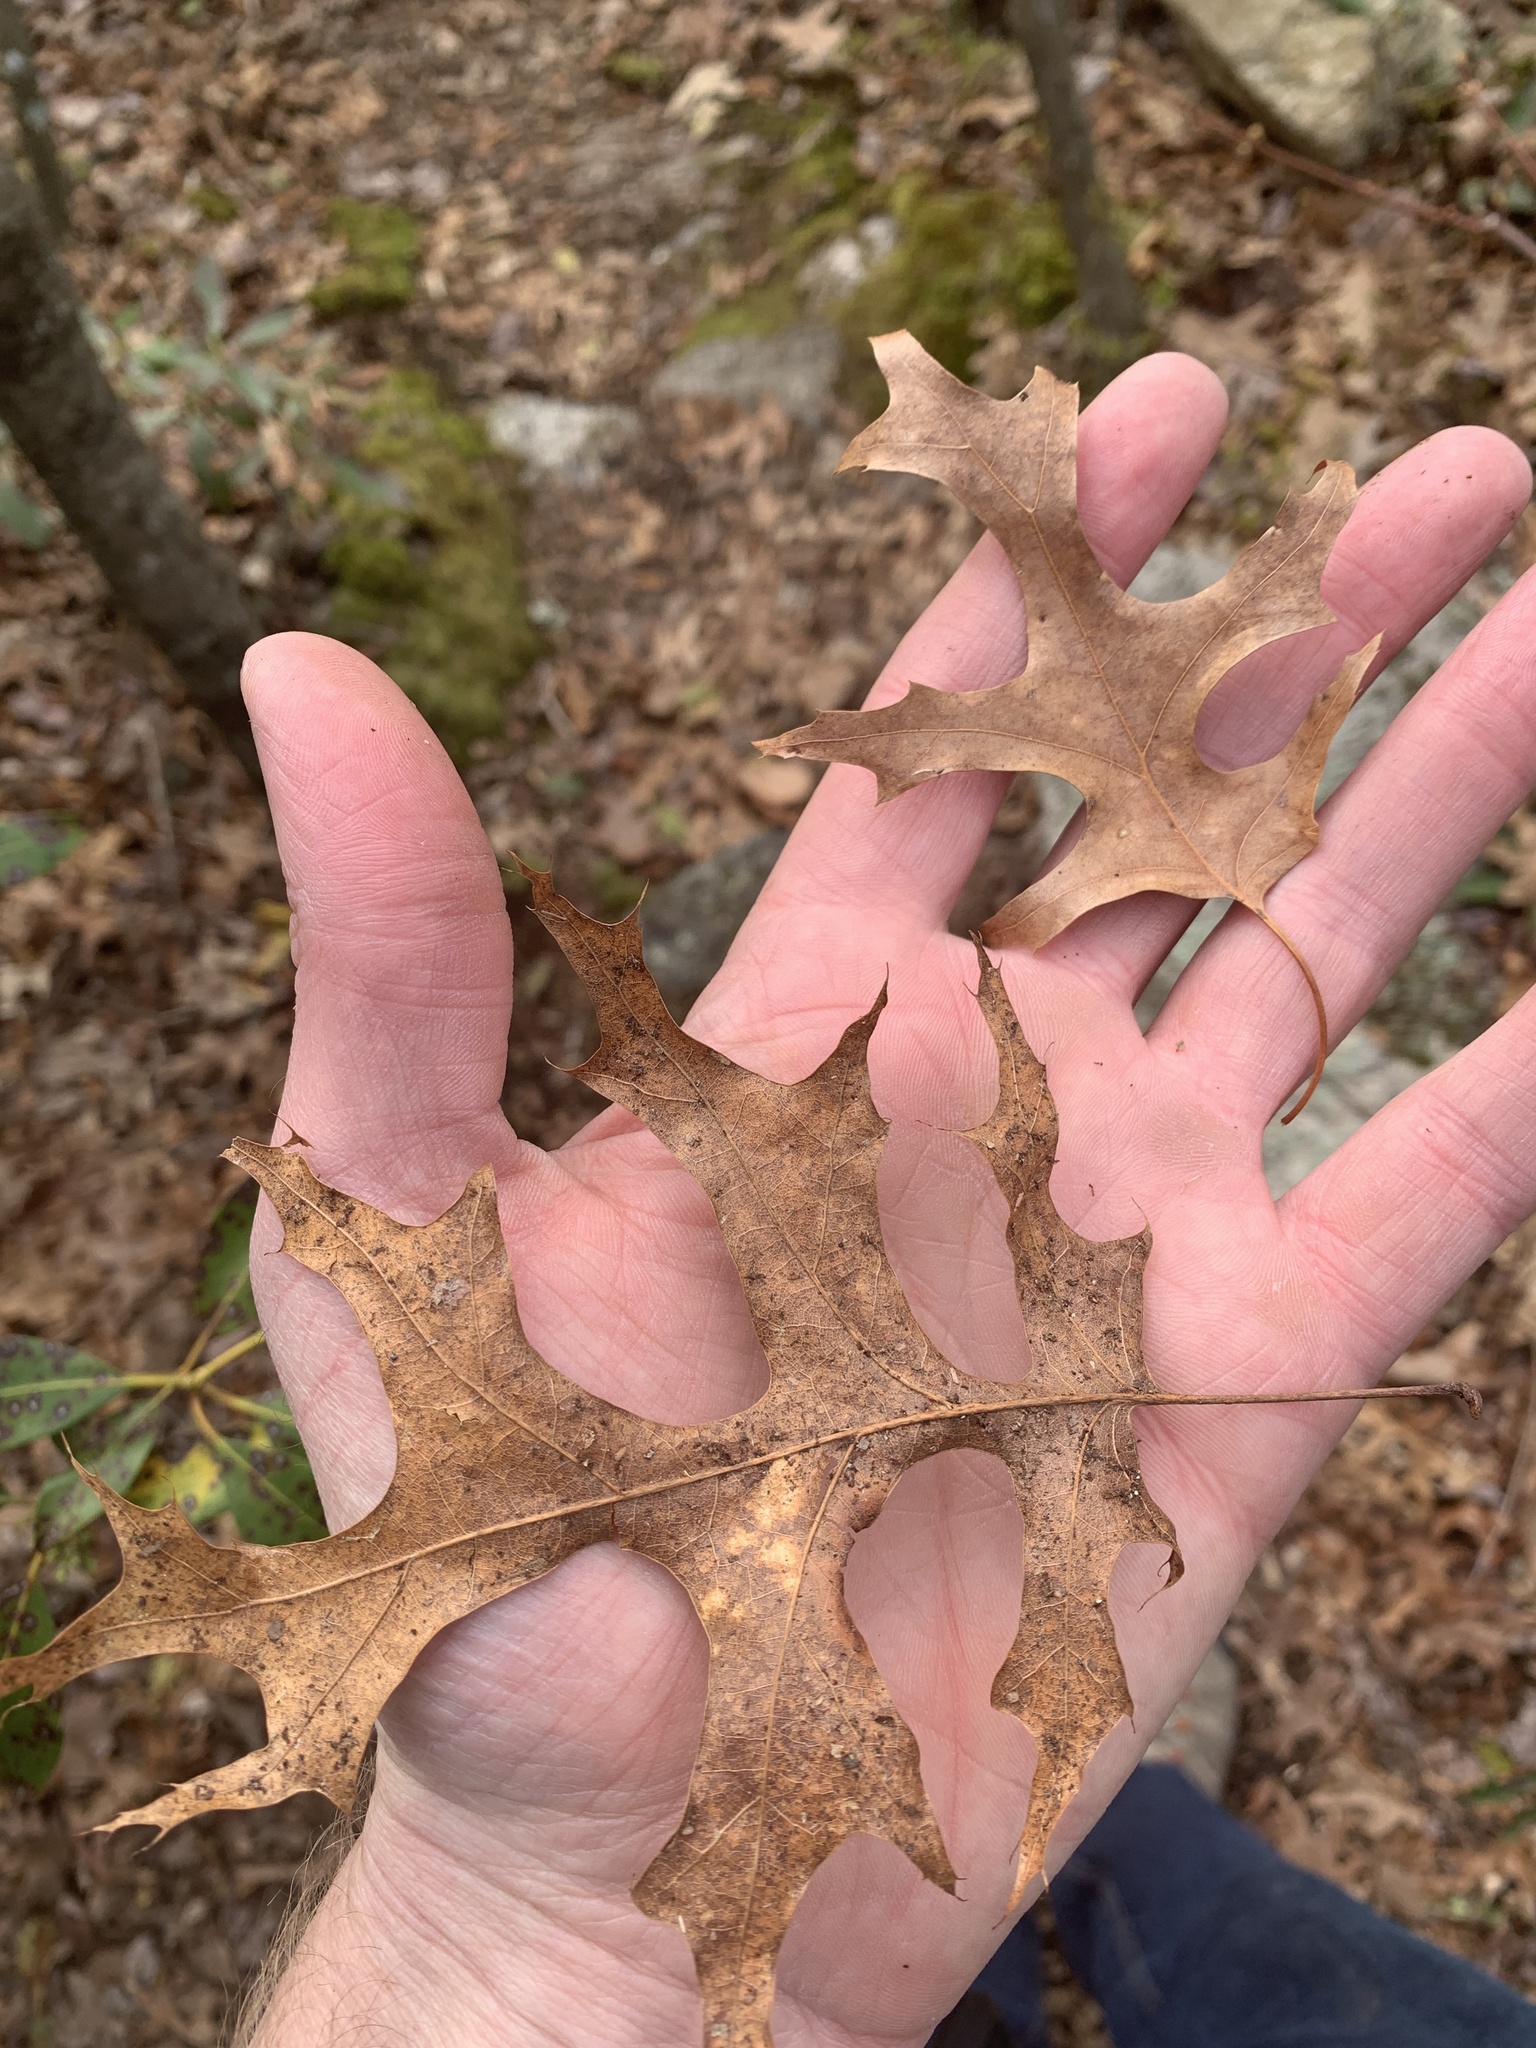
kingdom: Plantae
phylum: Tracheophyta
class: Magnoliopsida
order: Fagales
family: Fagaceae
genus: Quercus
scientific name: Quercus coccinea
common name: Scarlet oak
